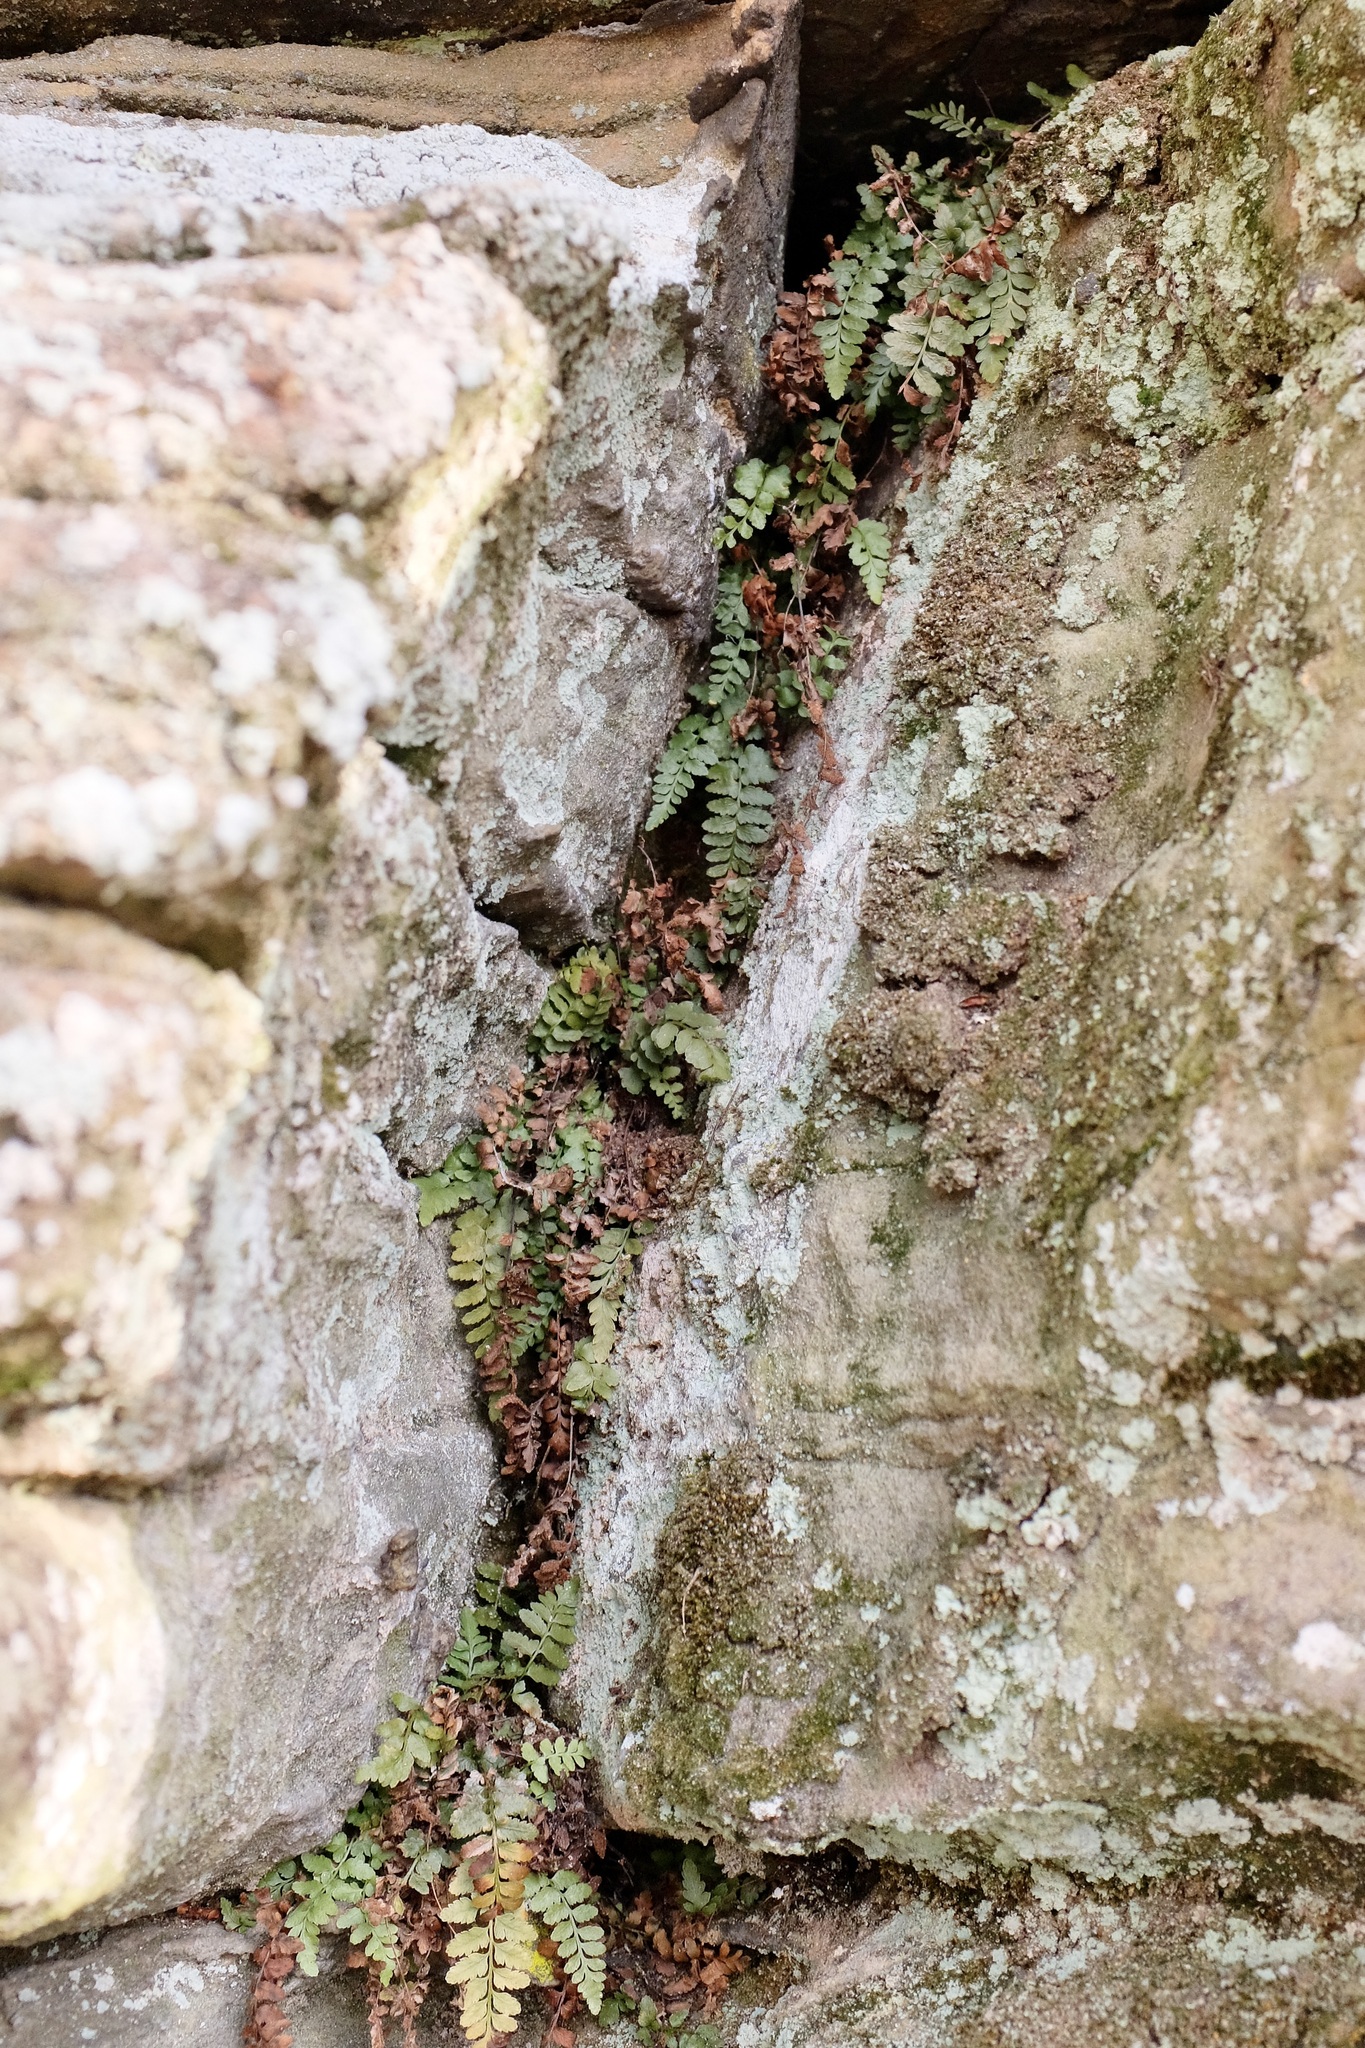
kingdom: Plantae
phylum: Tracheophyta
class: Polypodiopsida
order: Polypodiales
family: Aspleniaceae
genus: Asplenium
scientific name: Asplenium bradleyi
